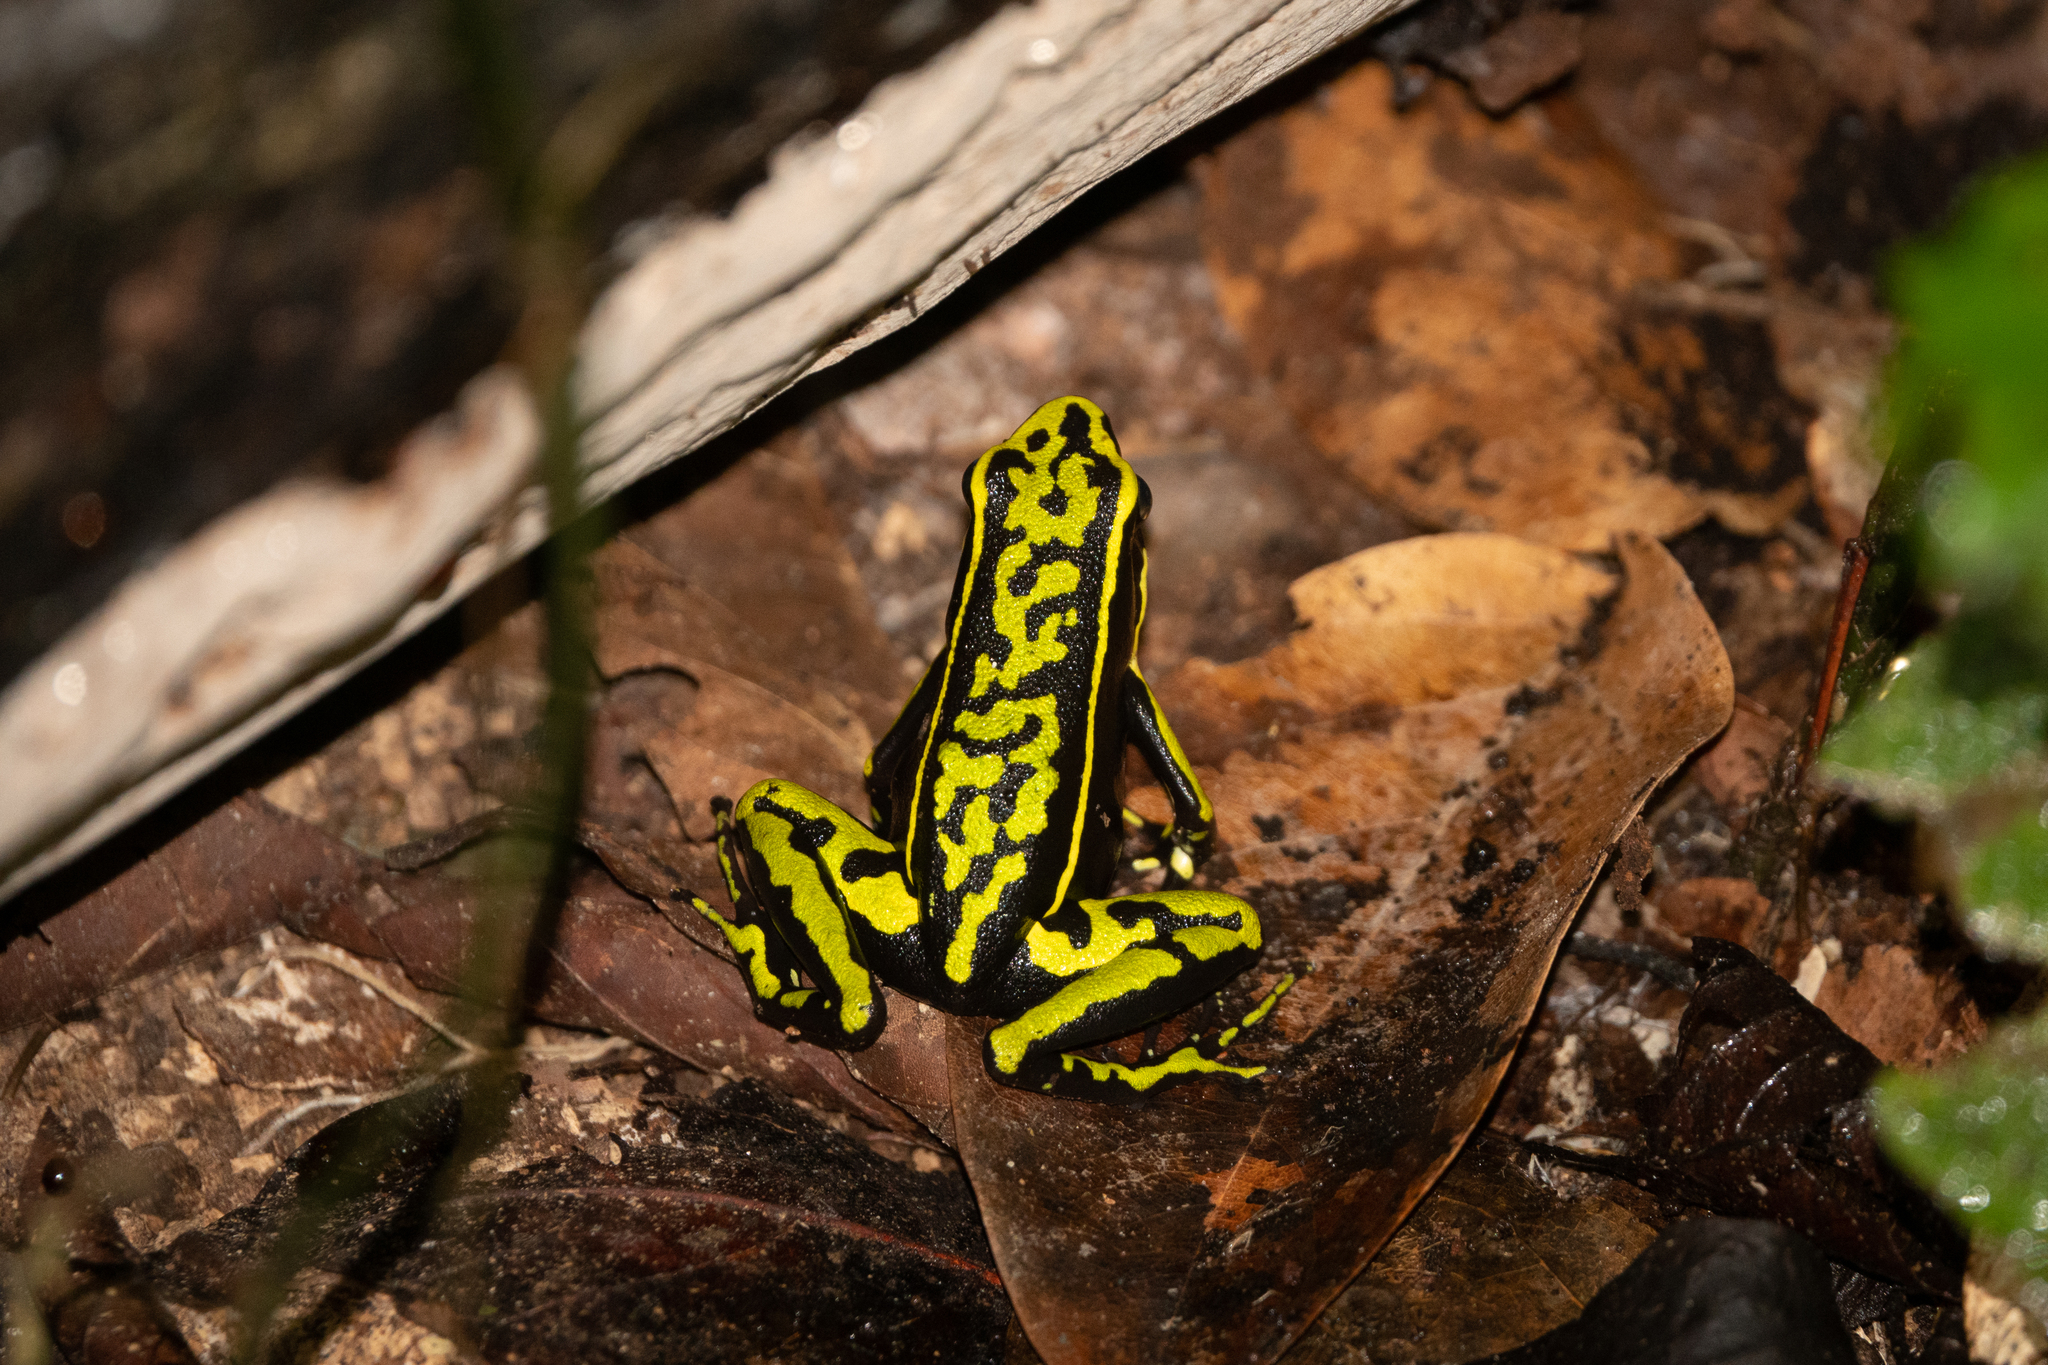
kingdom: Animalia
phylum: Chordata
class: Amphibia
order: Anura
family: Dendrobatidae
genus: Ameerega
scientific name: Ameerega trivittata
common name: Three-striped arrow-poison frog
